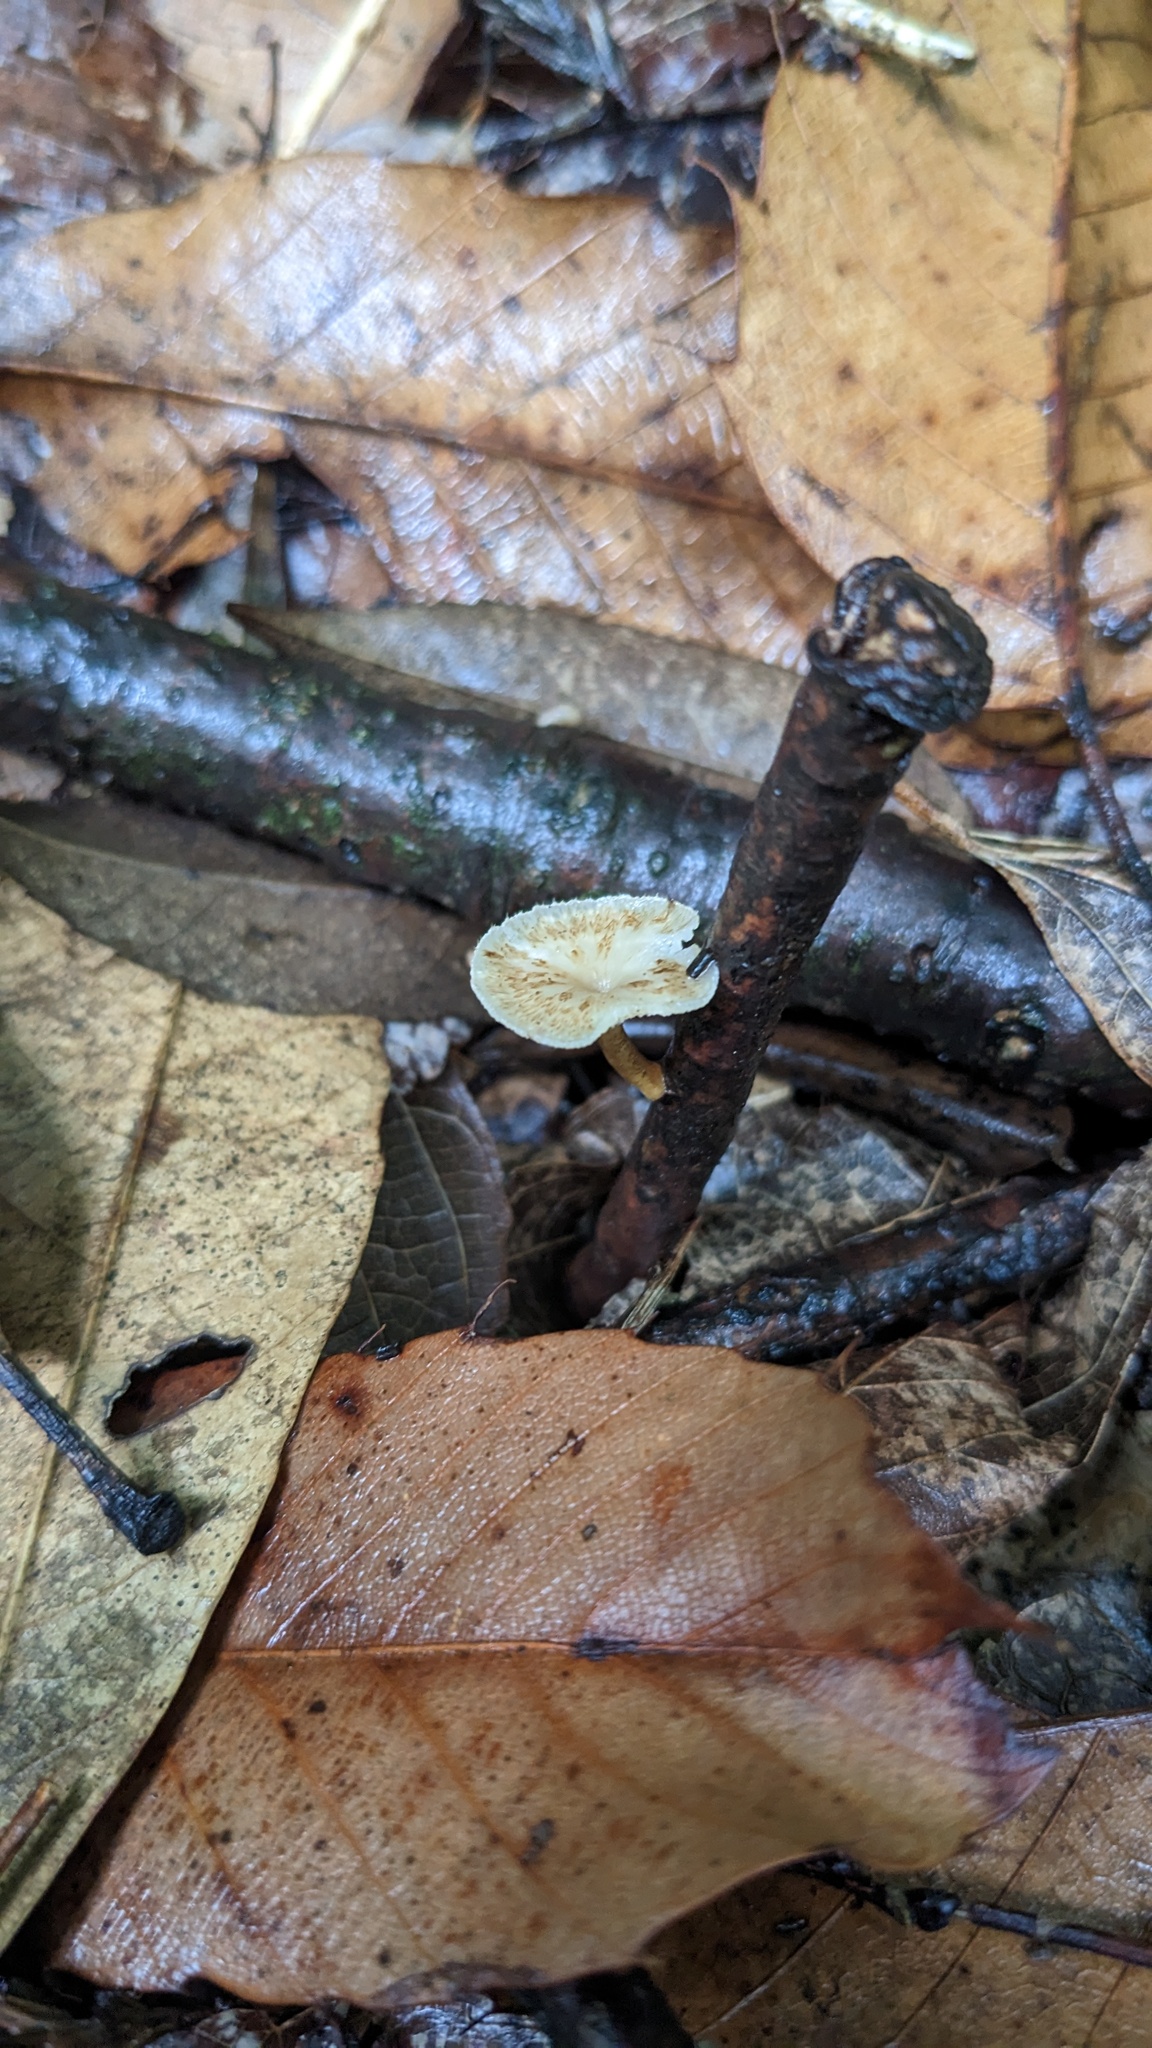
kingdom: Fungi
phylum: Basidiomycota
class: Agaricomycetes
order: Polyporales
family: Polyporaceae
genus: Lentinus
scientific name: Lentinus arcularius
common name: Spring polypore
